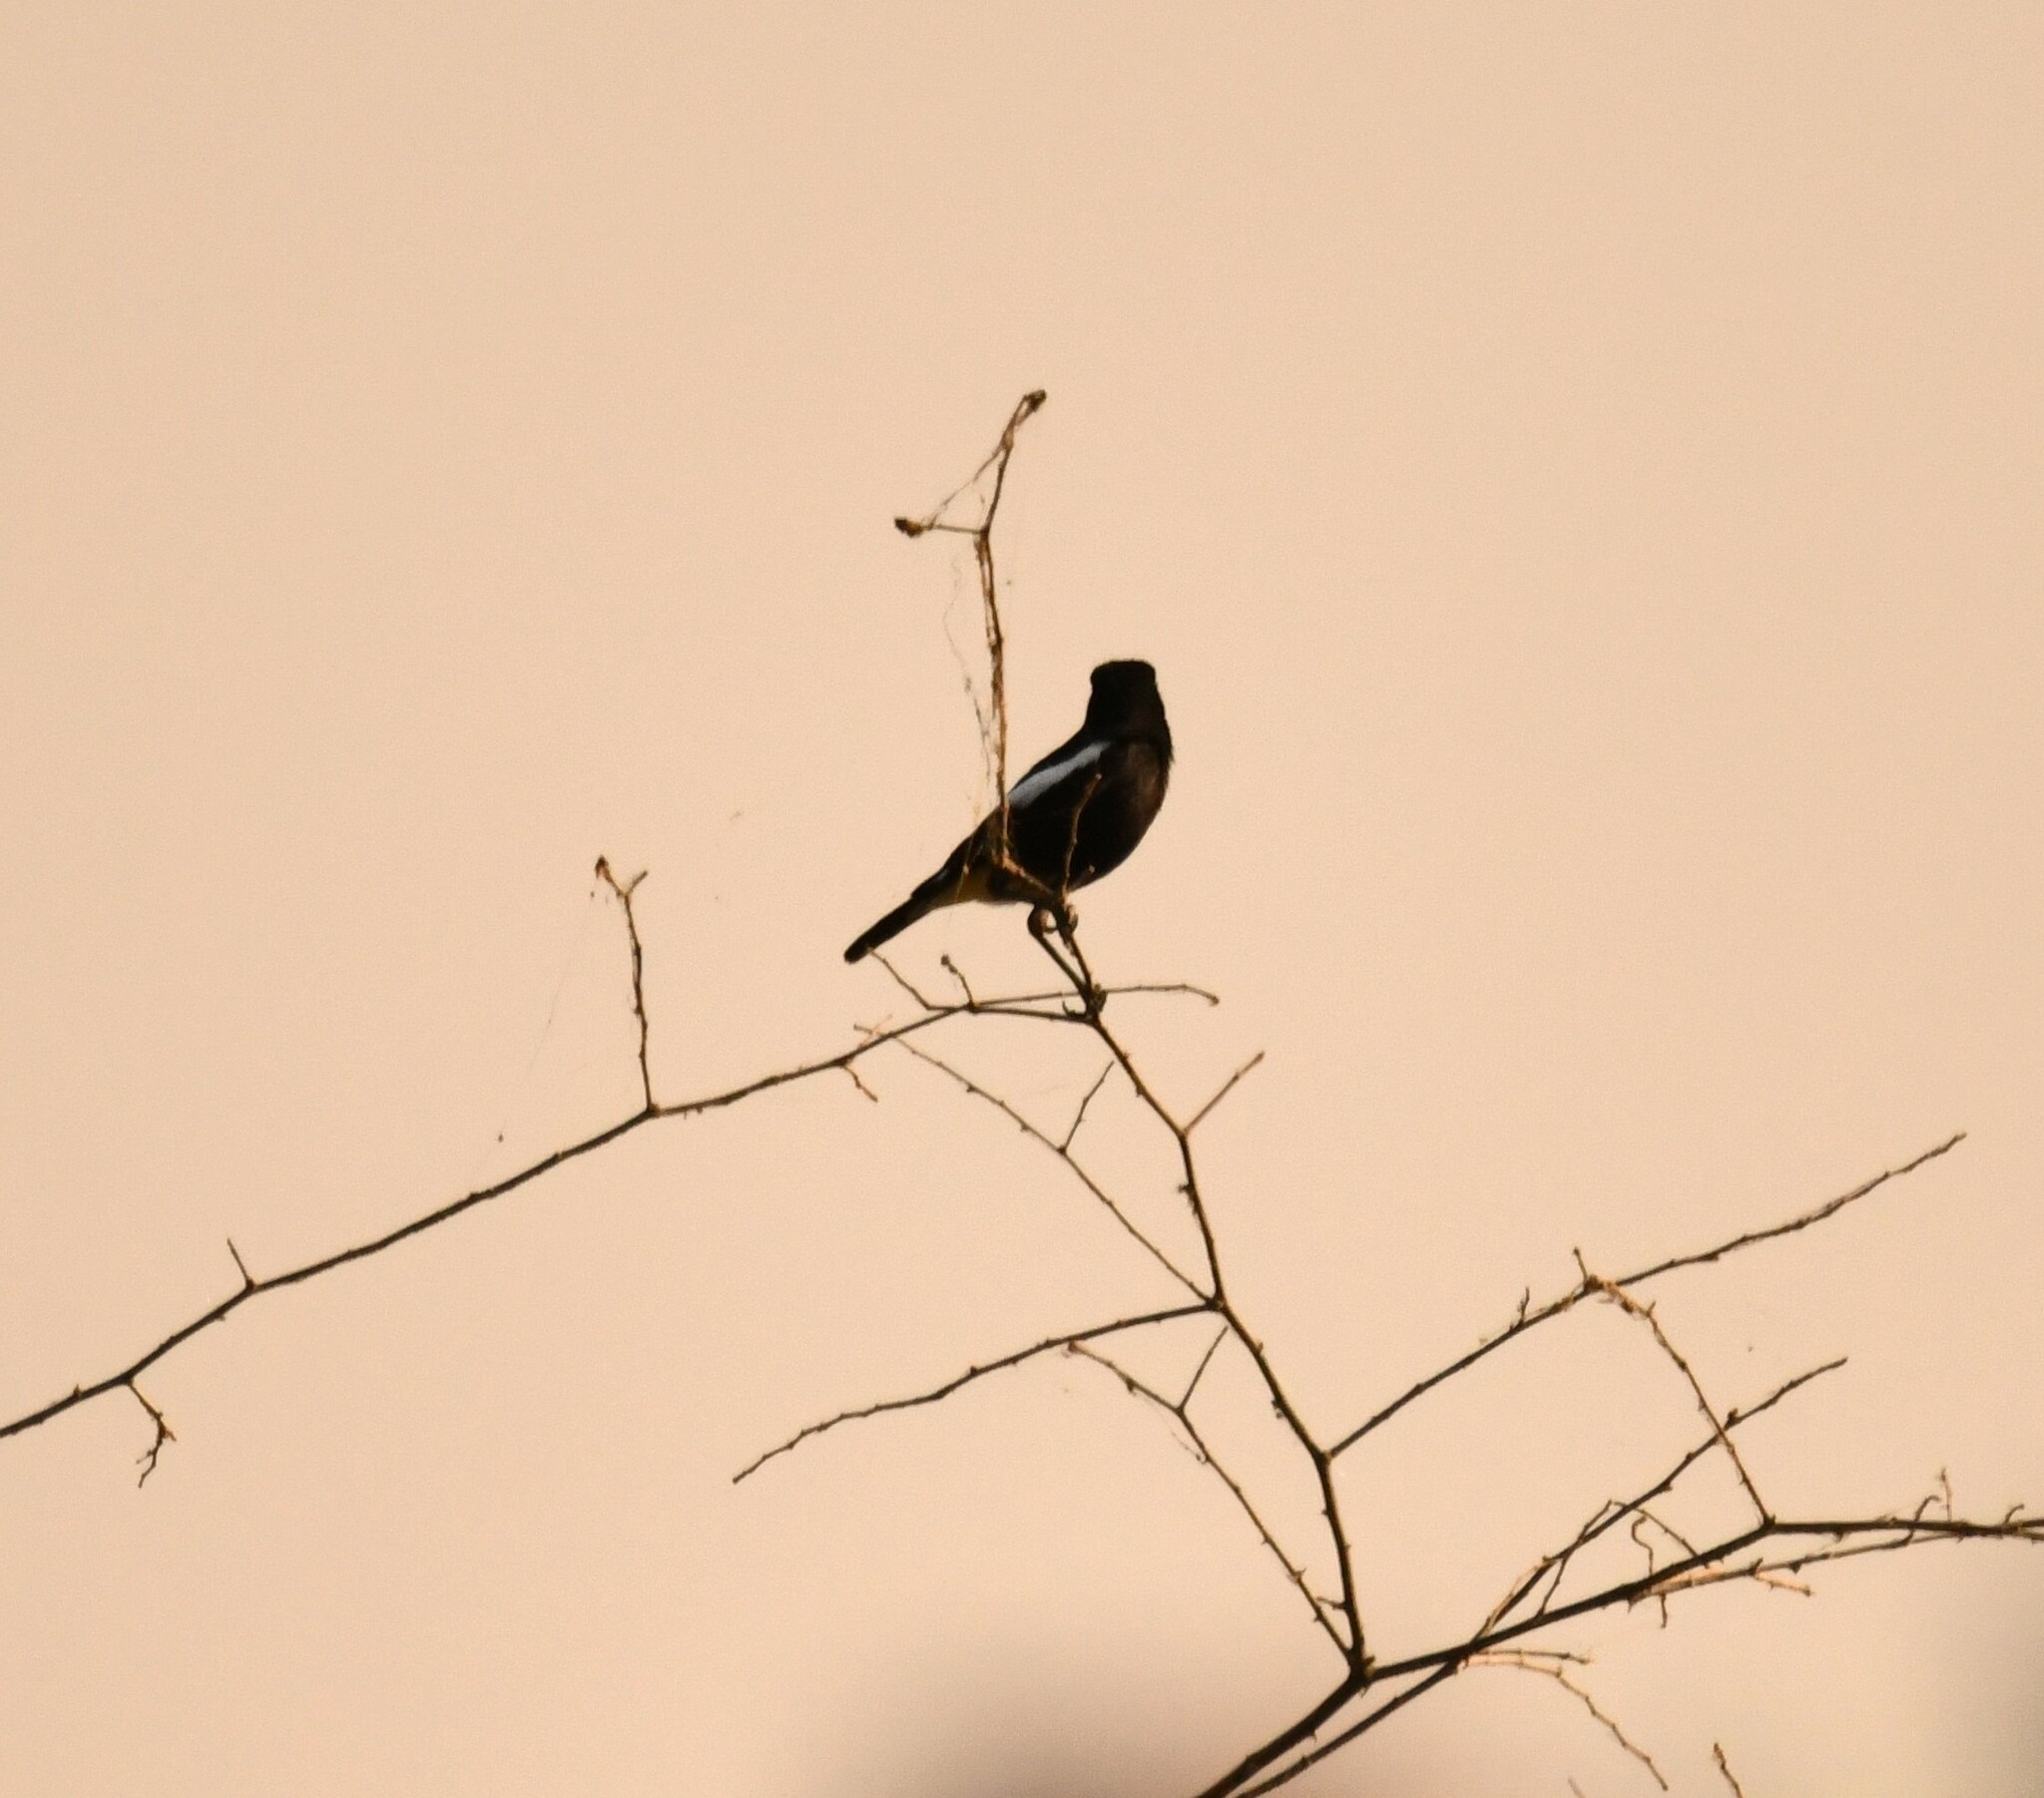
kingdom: Animalia
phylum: Chordata
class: Aves
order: Passeriformes
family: Muscicapidae
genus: Saxicola
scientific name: Saxicola caprata
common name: Pied bush chat
